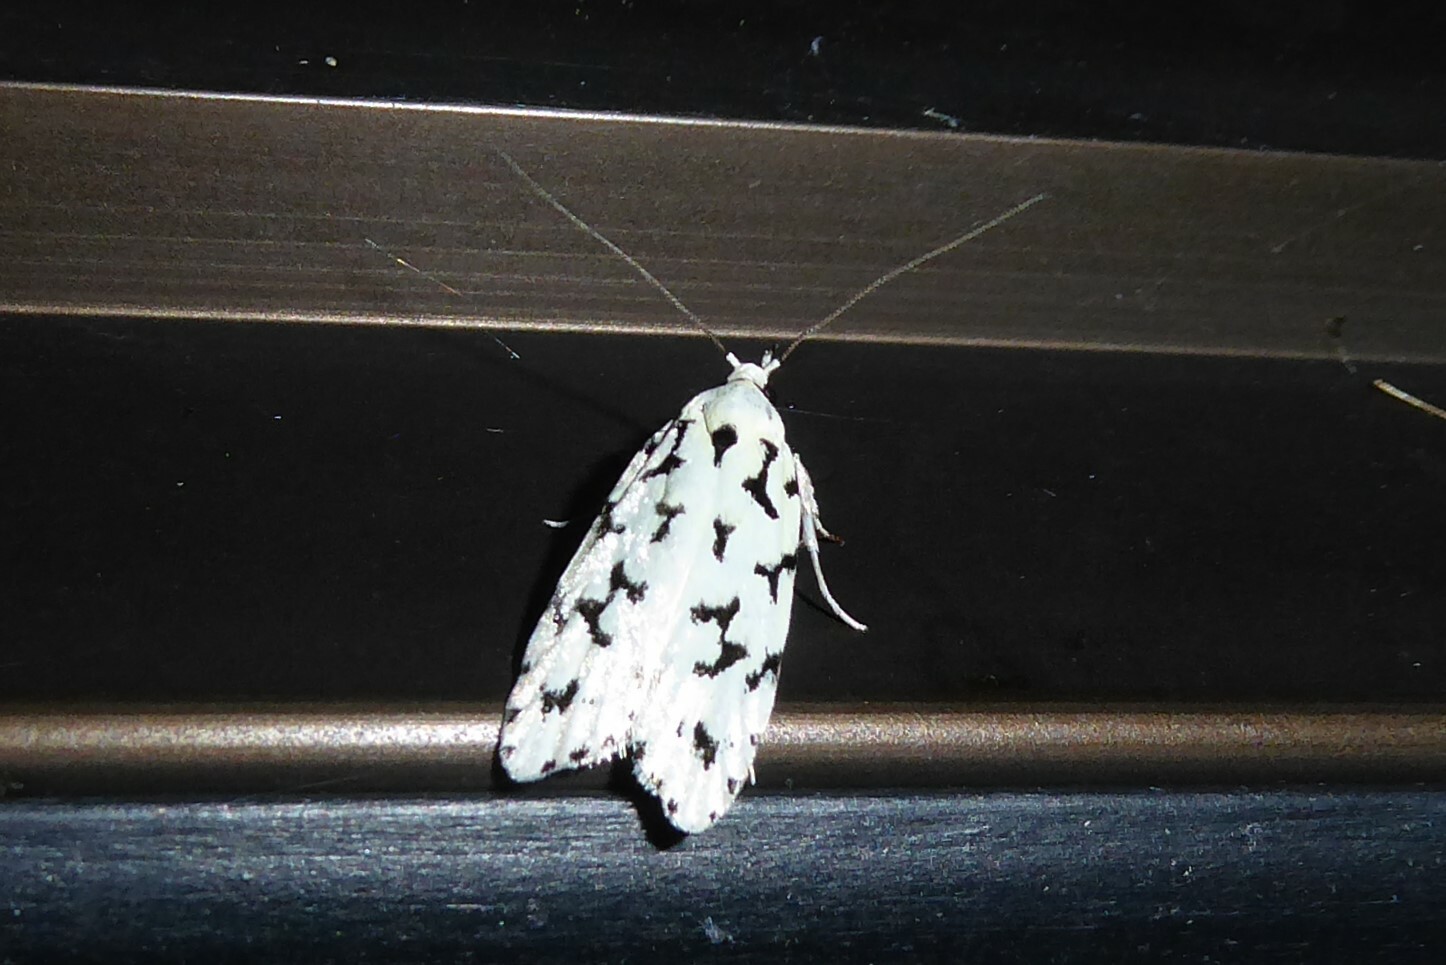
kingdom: Animalia
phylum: Arthropoda
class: Insecta
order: Lepidoptera
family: Oecophoridae
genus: Izatha
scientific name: Izatha huttoni
